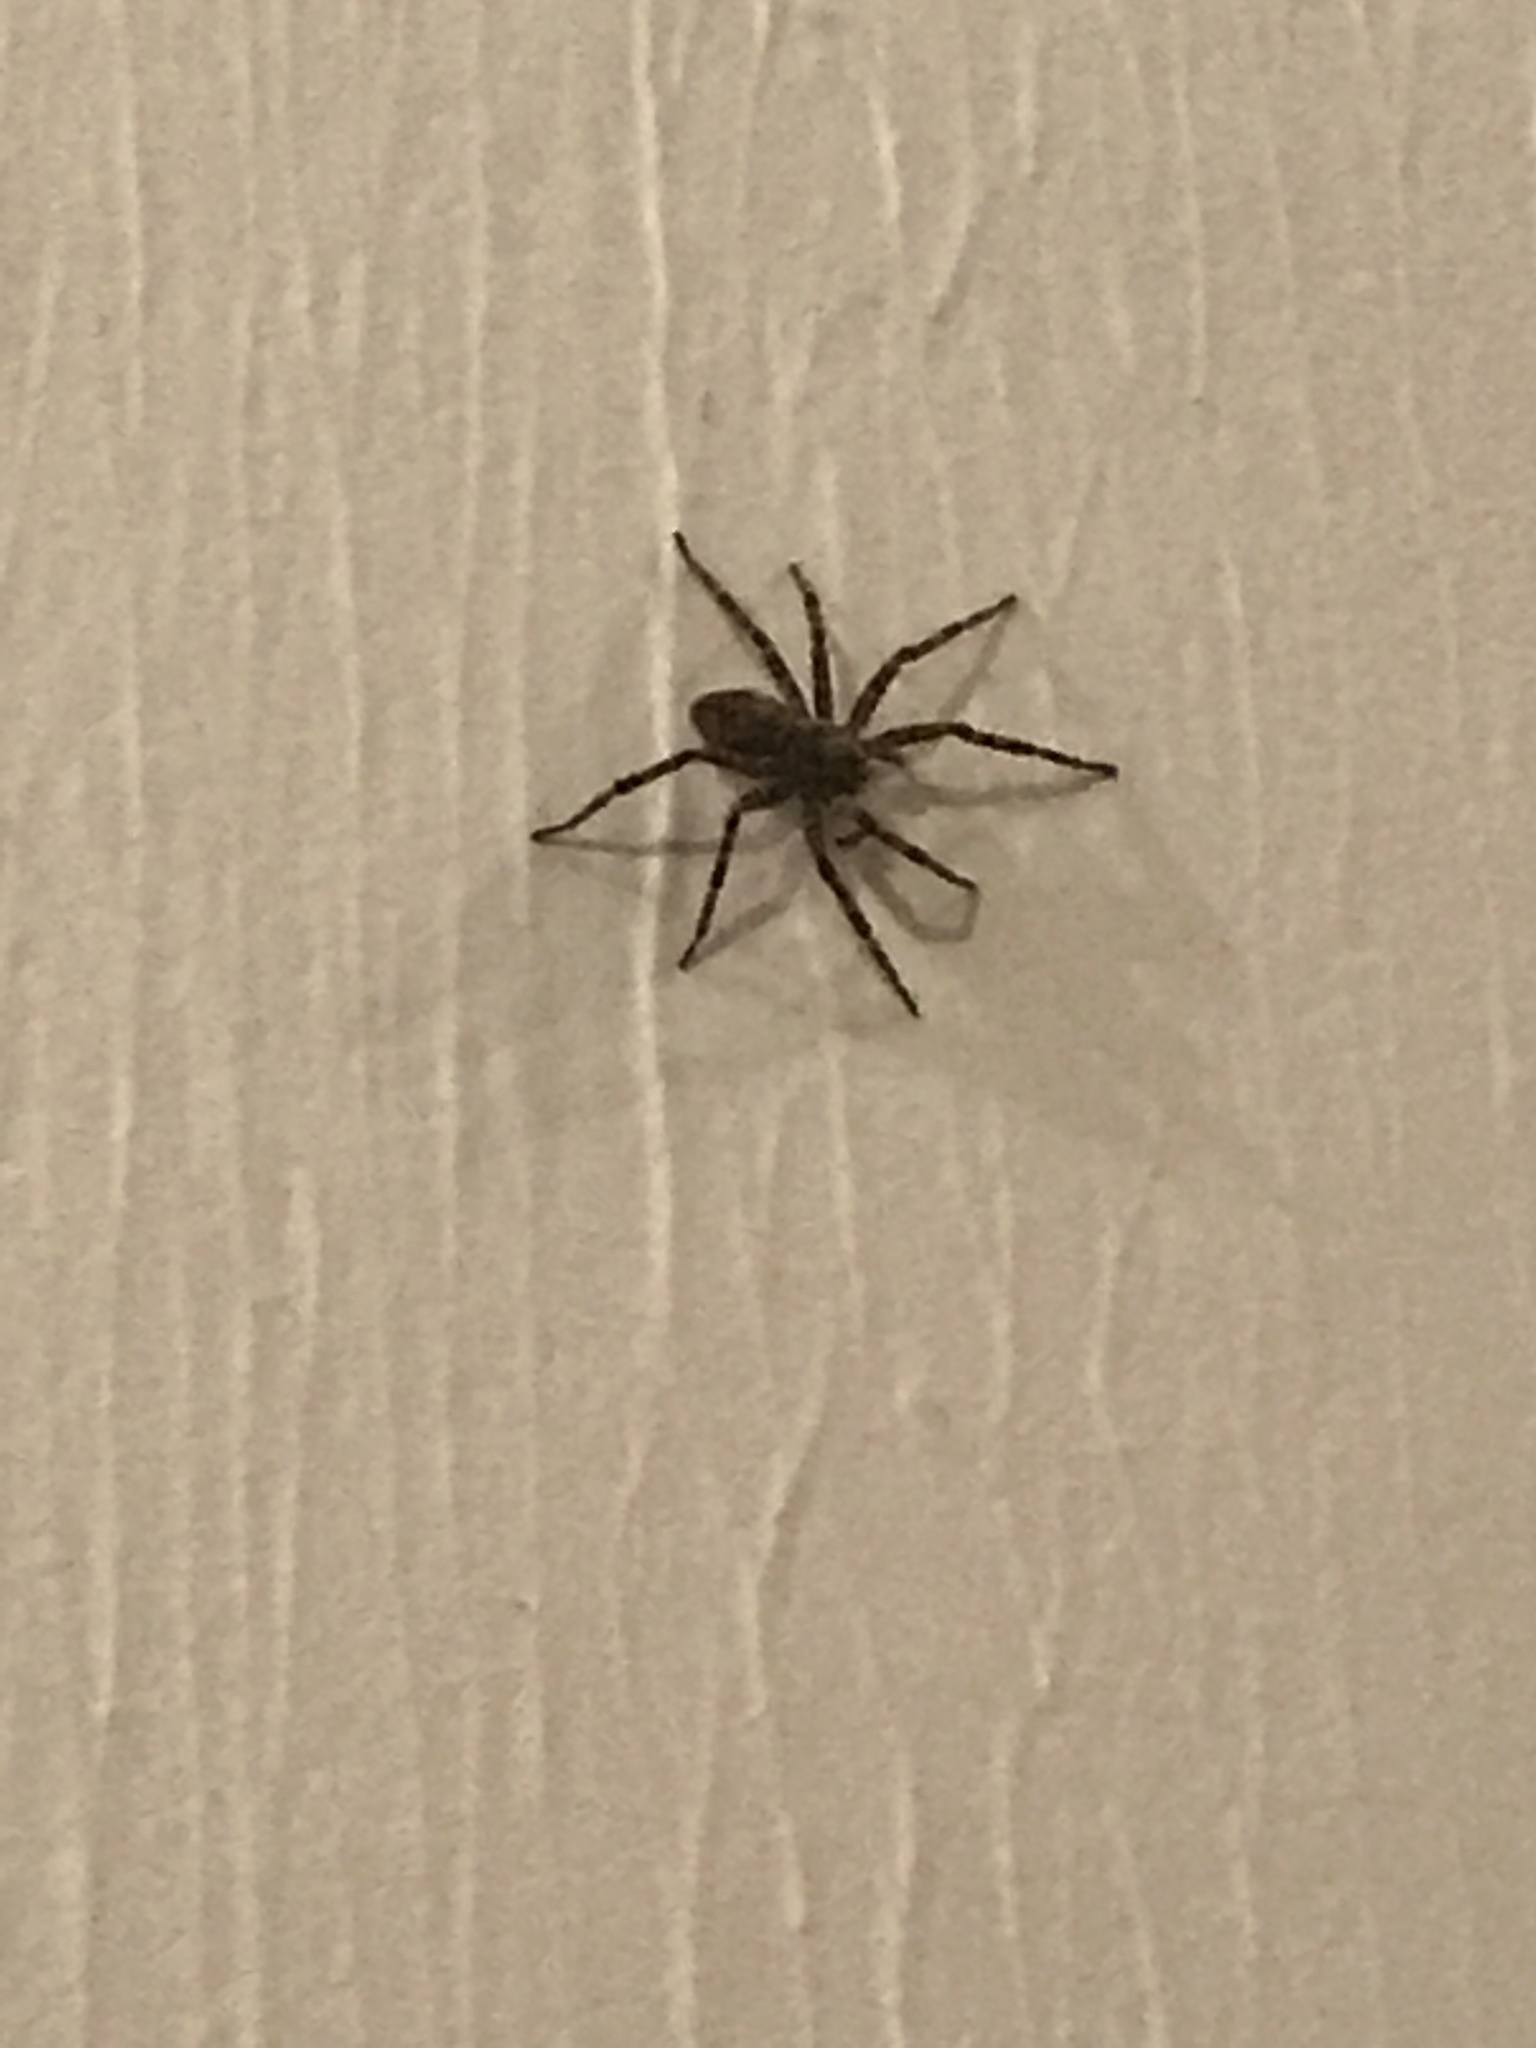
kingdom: Animalia
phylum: Arthropoda
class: Arachnida
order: Araneae
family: Pisauridae
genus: Dolomedes
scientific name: Dolomedes tenebrosus
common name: Dark fishing spider
